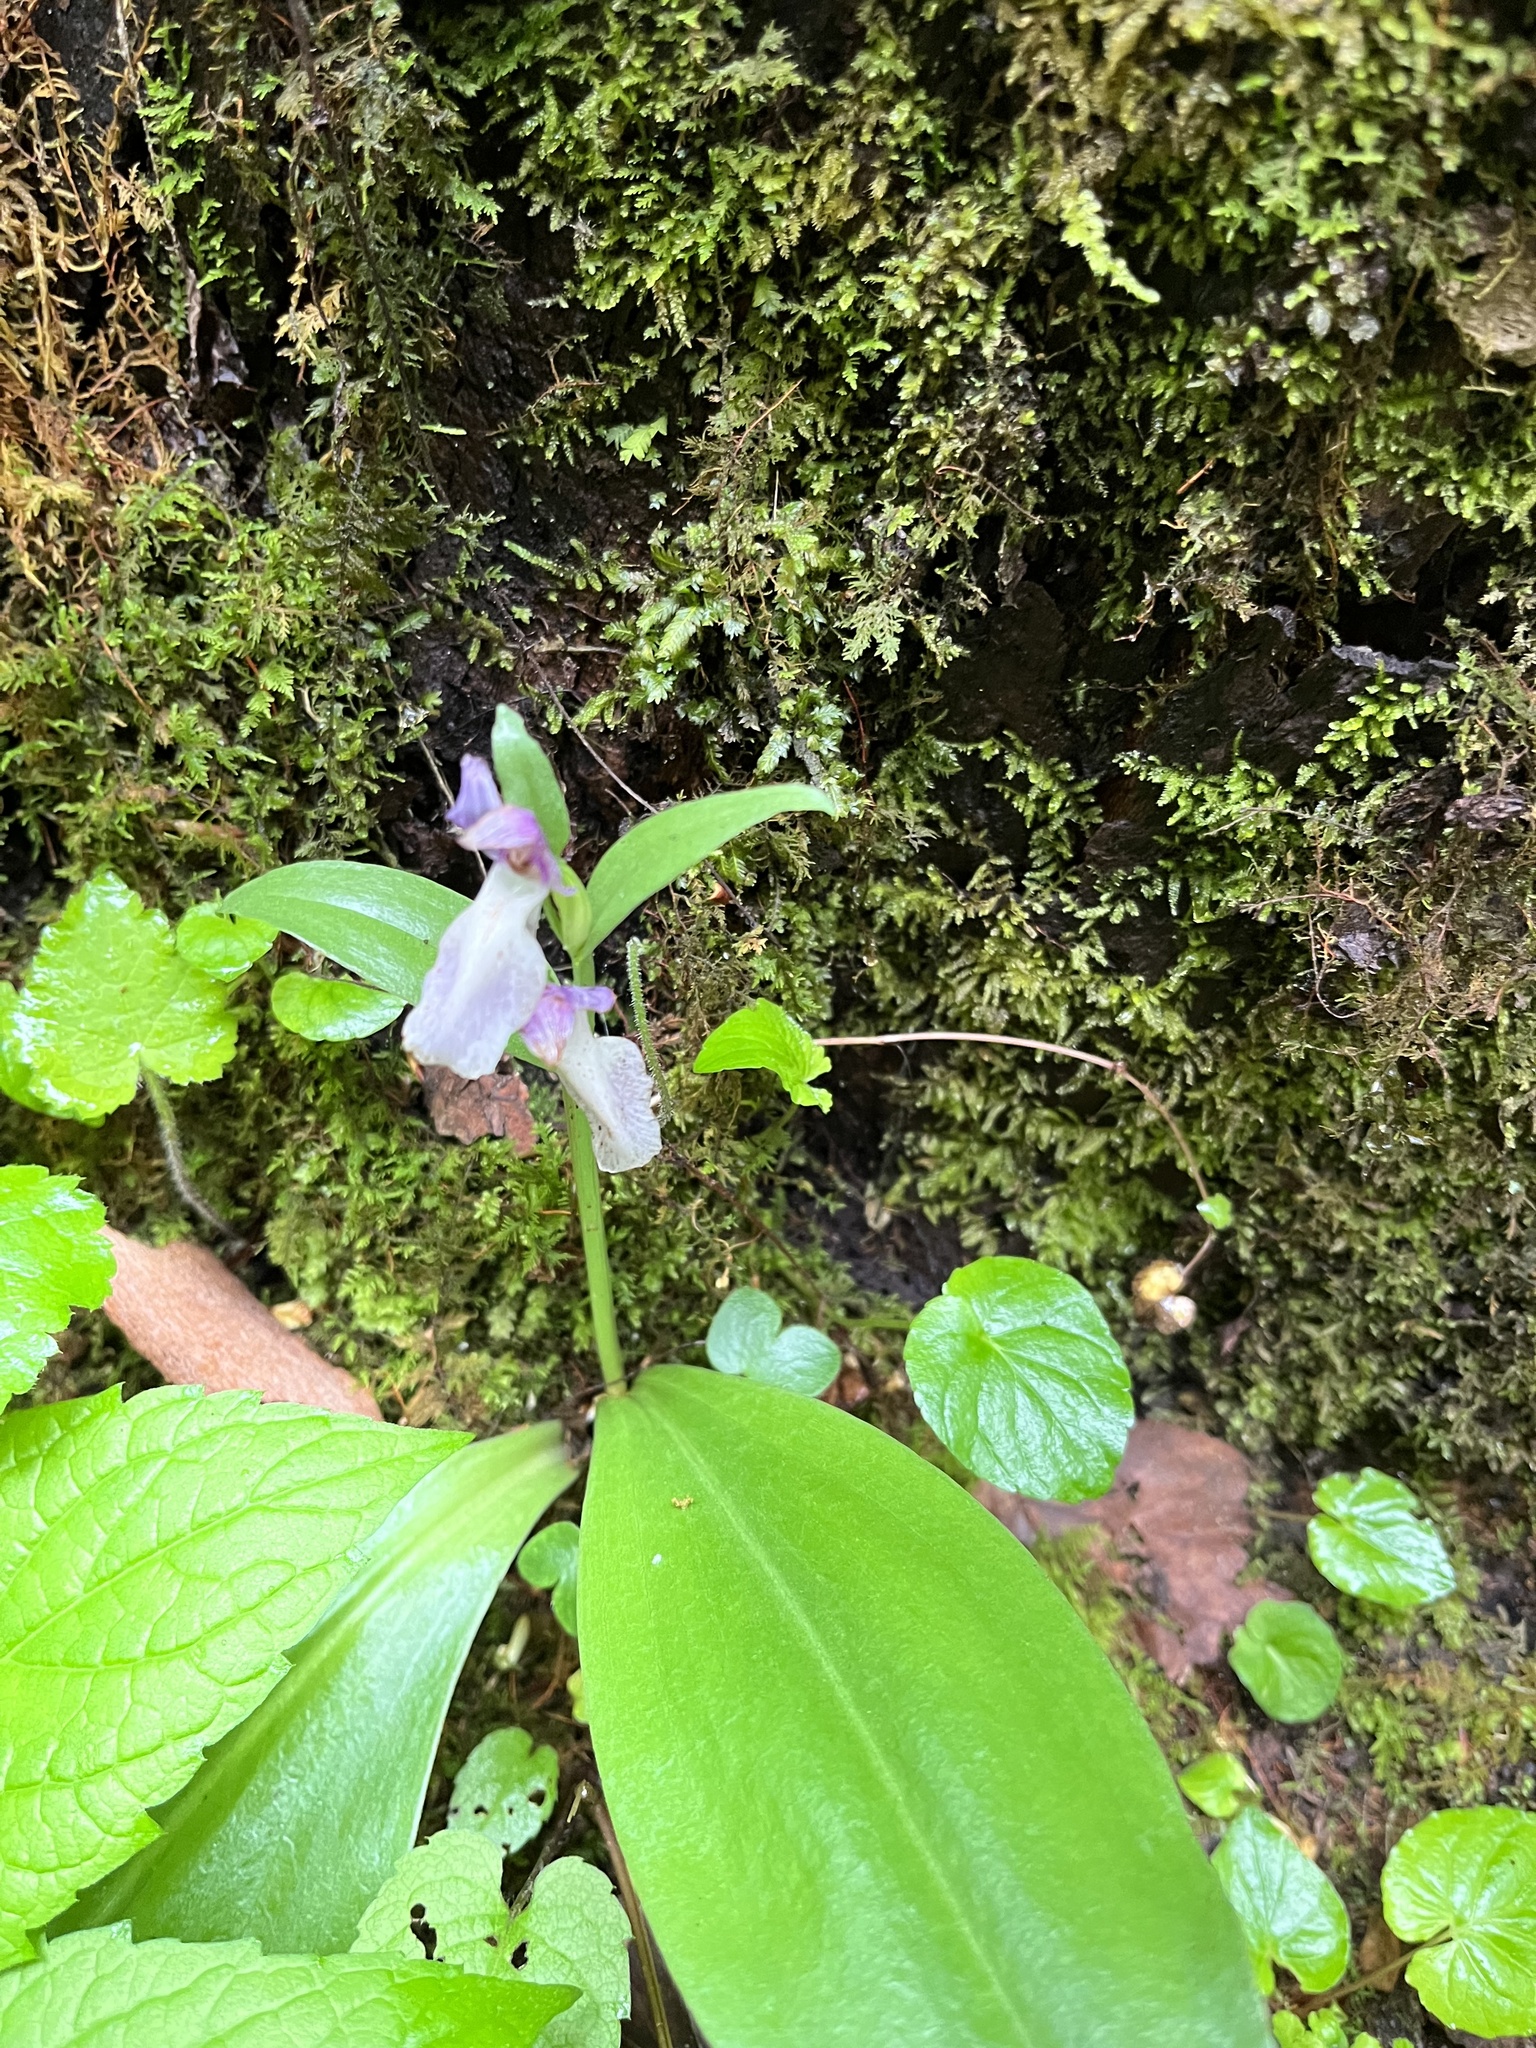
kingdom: Plantae
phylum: Tracheophyta
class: Liliopsida
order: Asparagales
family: Orchidaceae
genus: Galearis
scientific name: Galearis spectabilis
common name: Purple-hooded orchis
